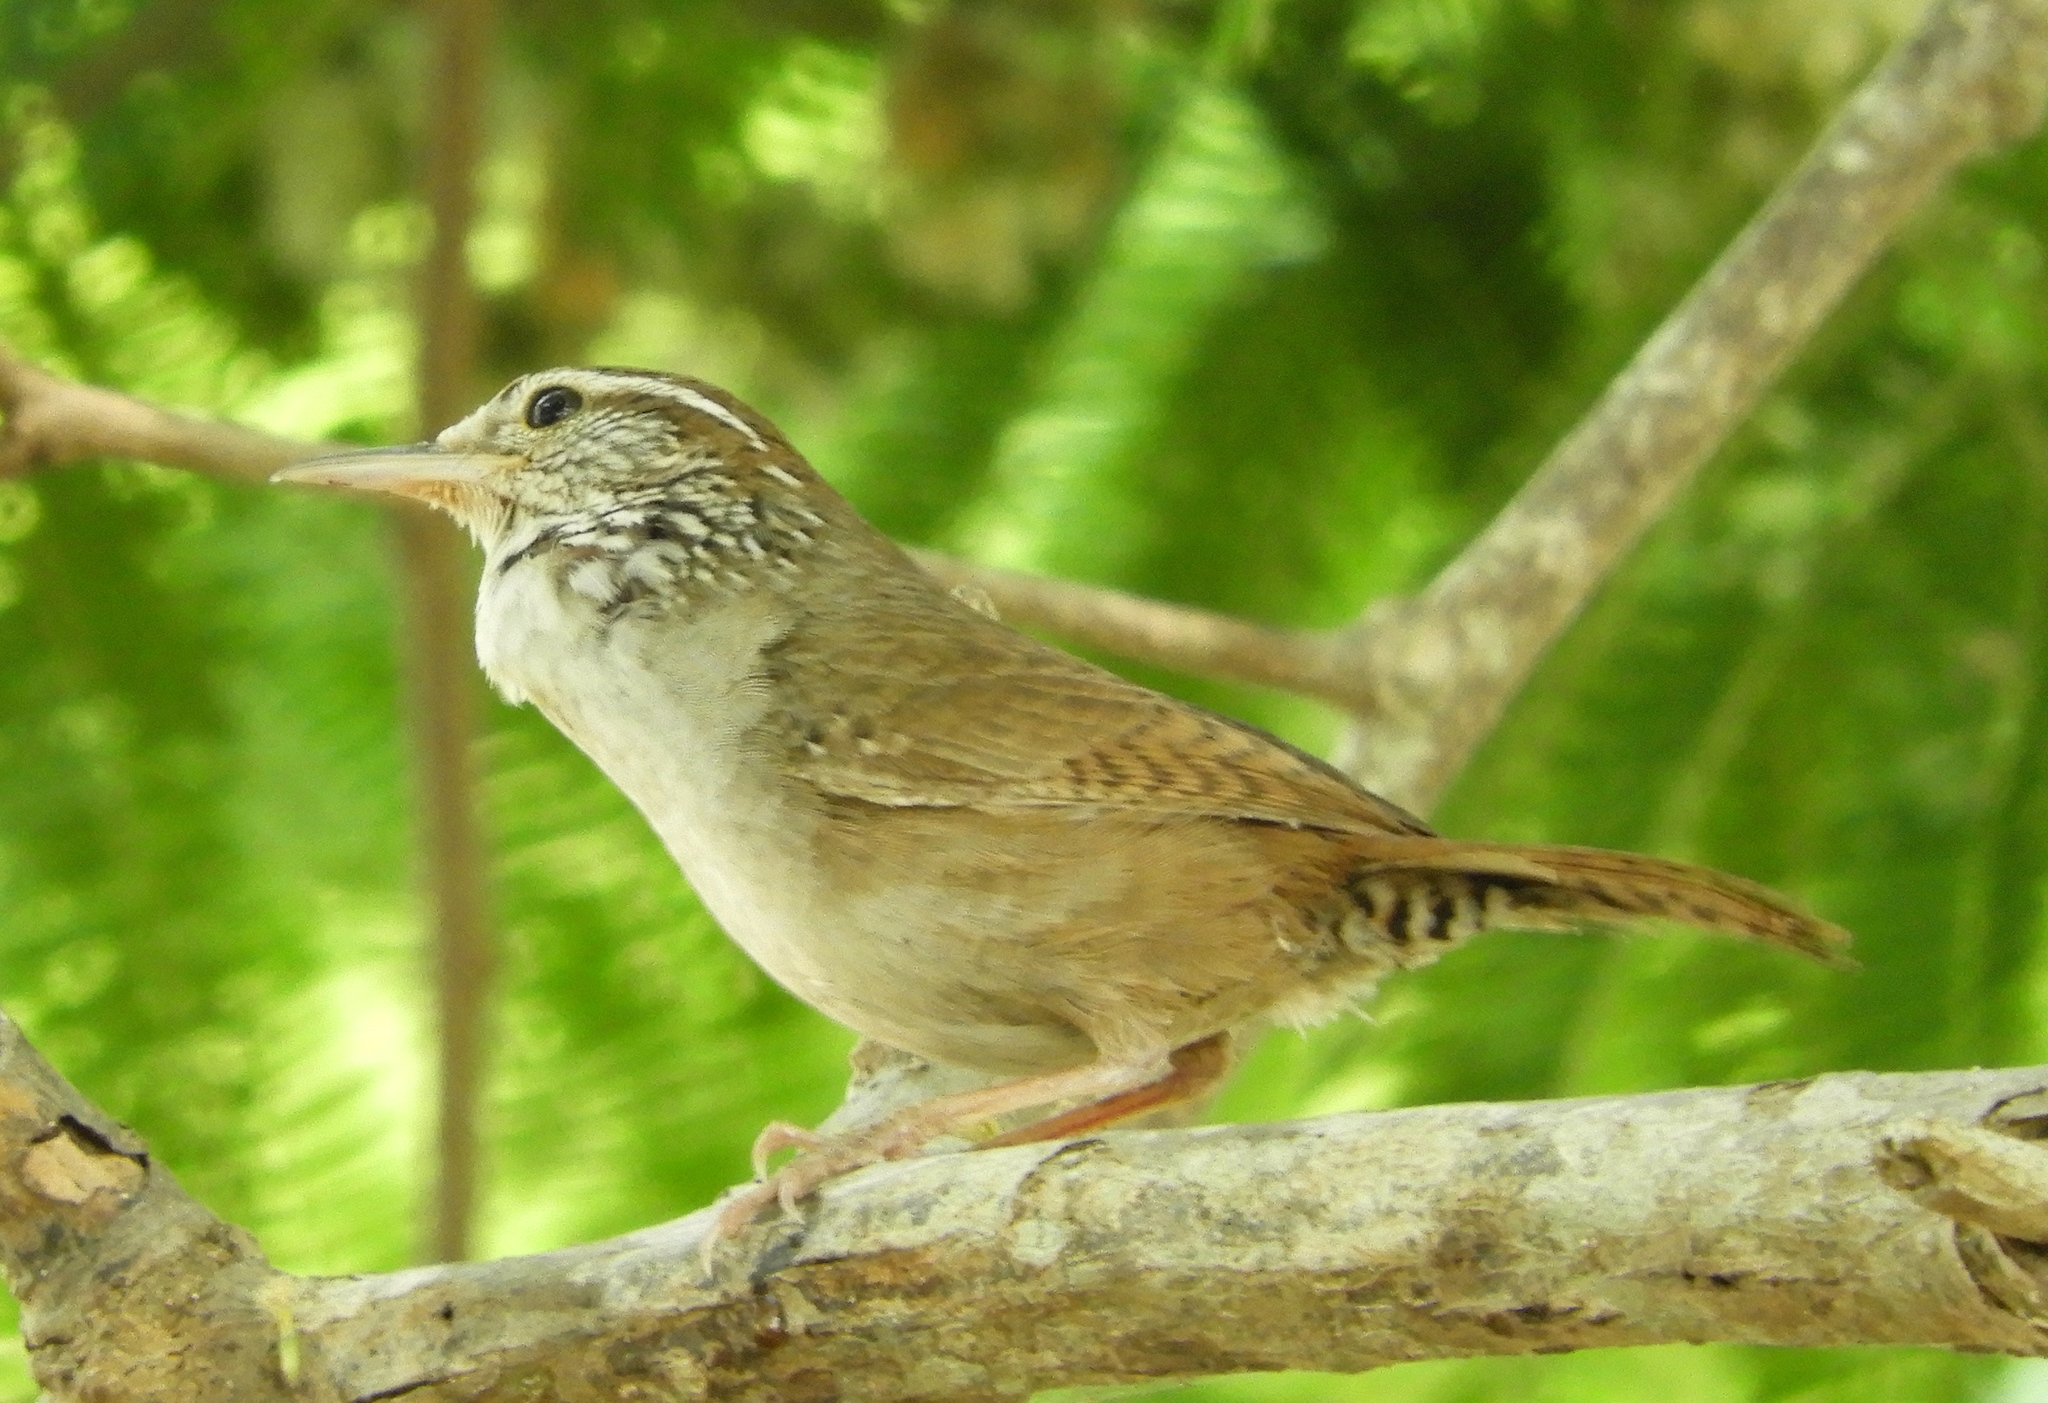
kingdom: Animalia
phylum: Chordata
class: Aves
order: Passeriformes
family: Troglodytidae
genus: Thryophilus
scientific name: Thryophilus sinaloa
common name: Sinaloa wren
